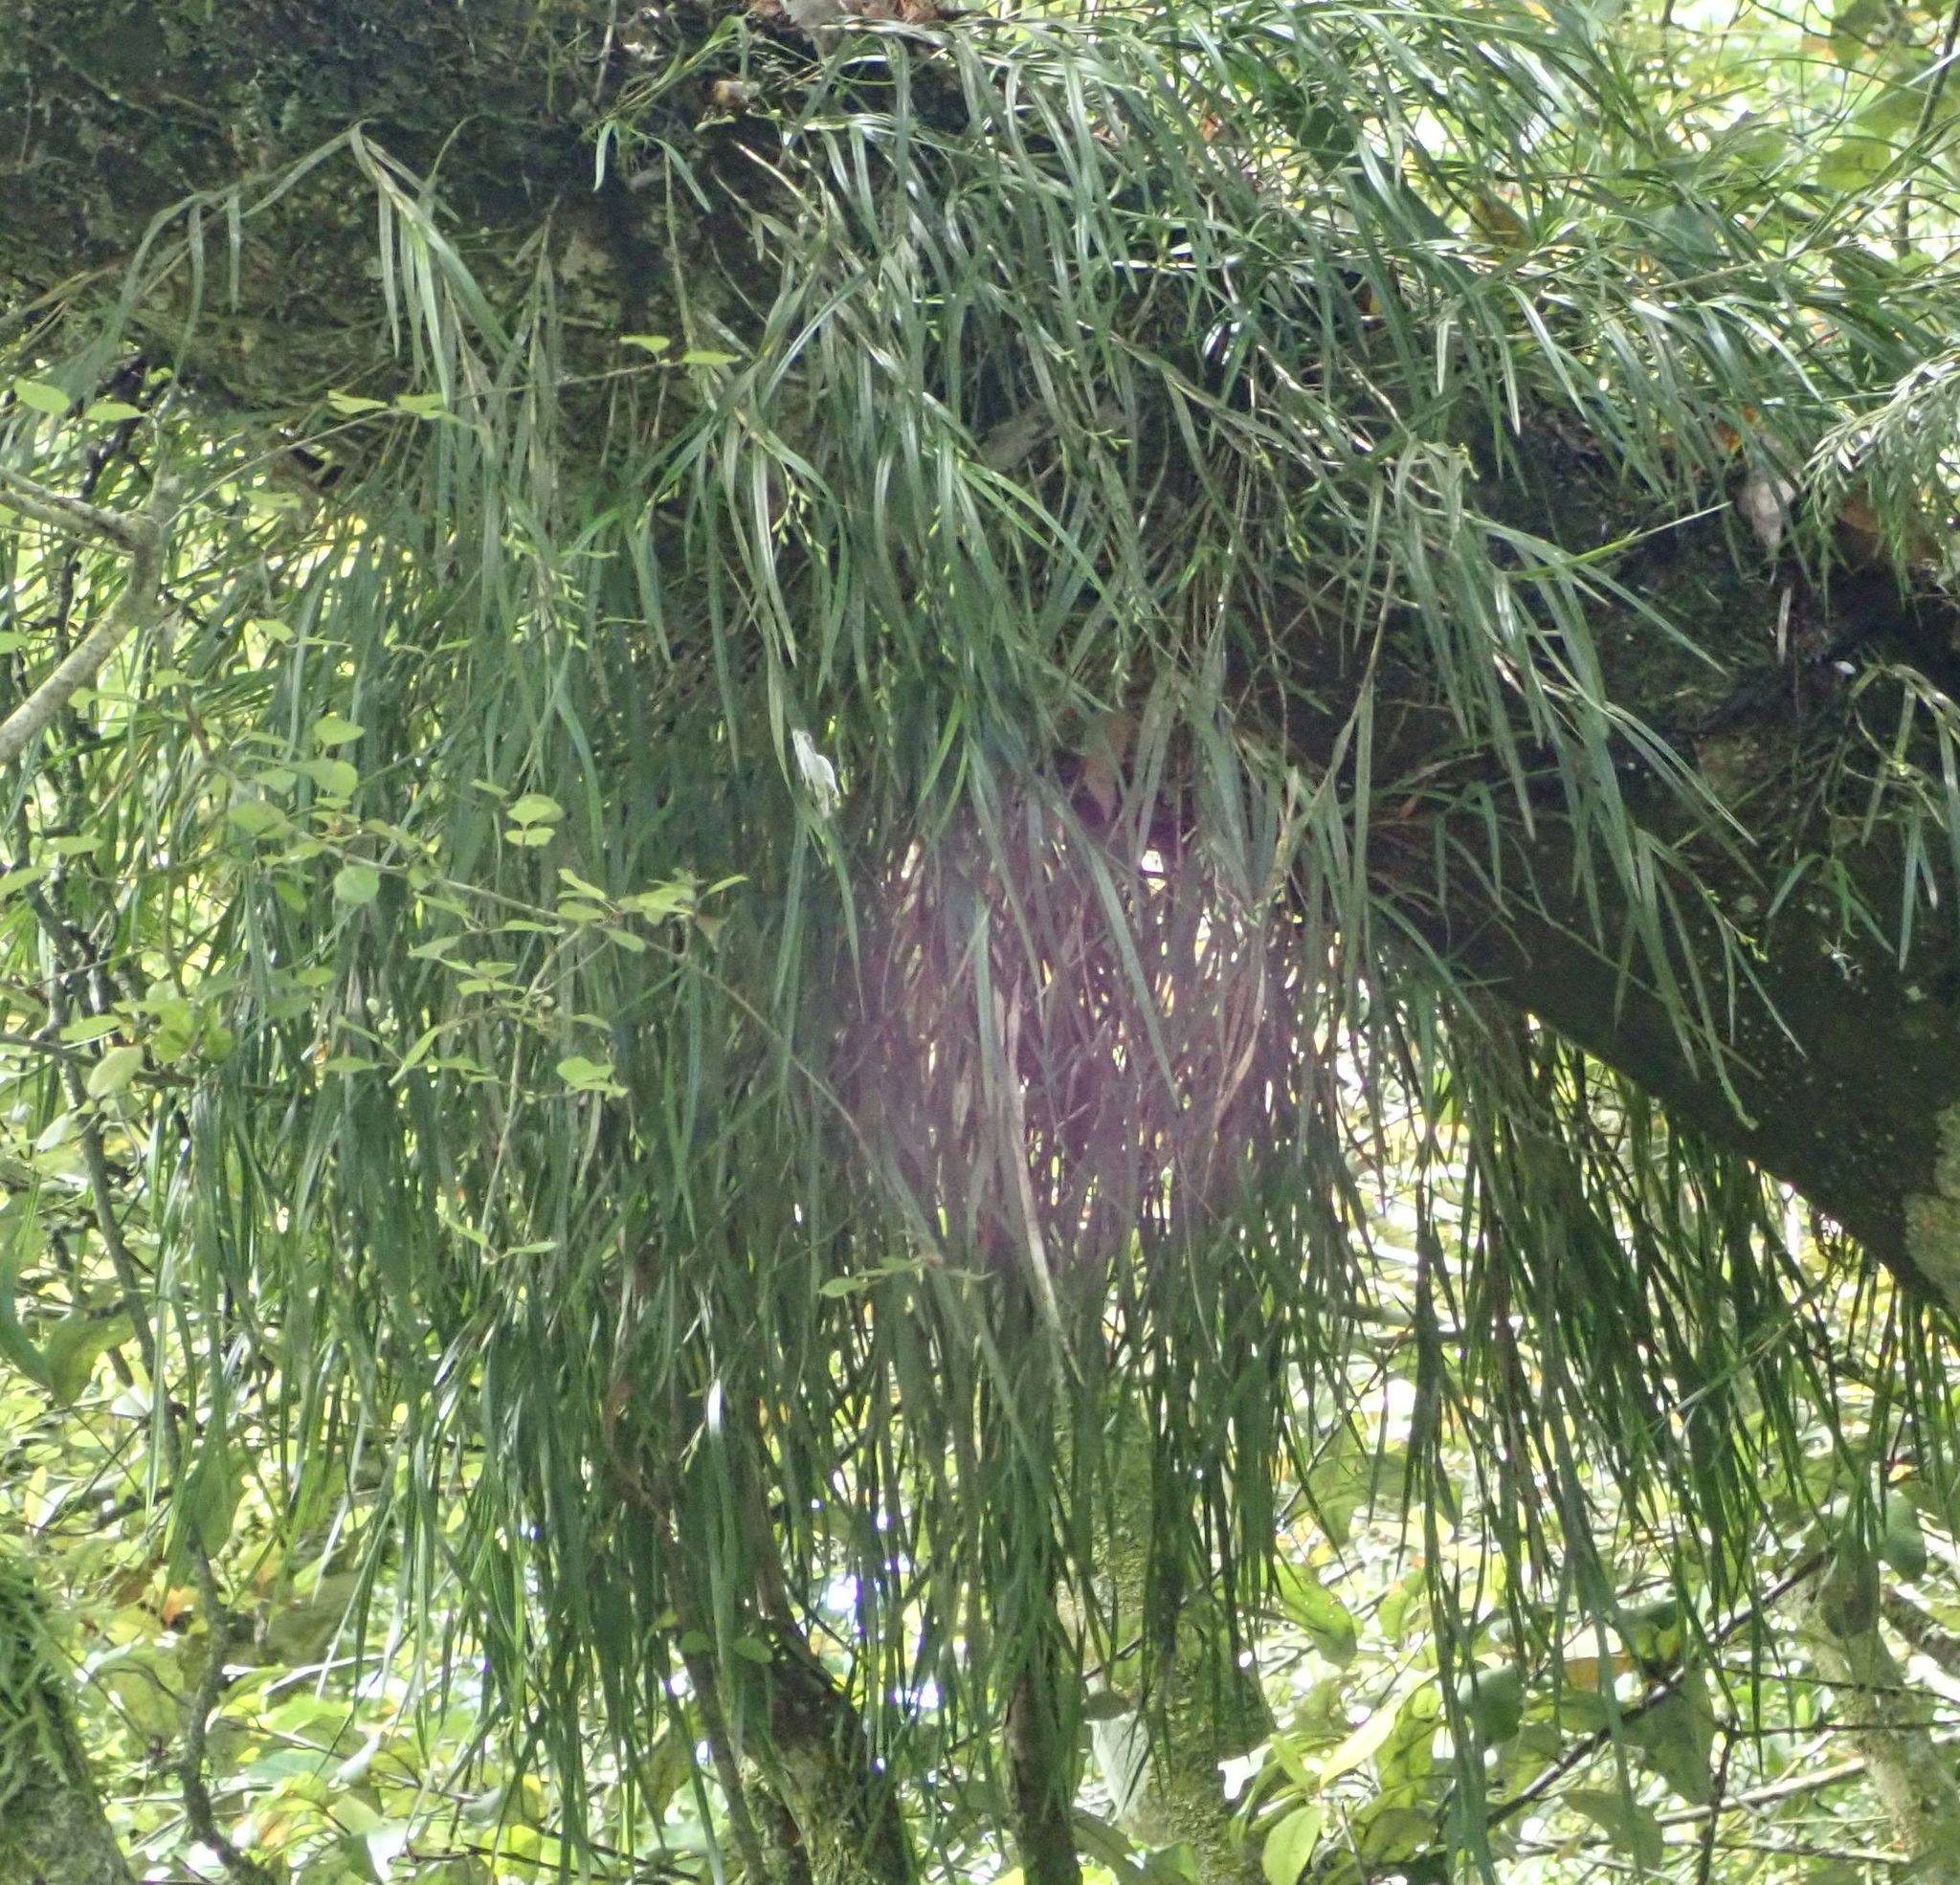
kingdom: Plantae
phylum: Tracheophyta
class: Liliopsida
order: Asparagales
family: Orchidaceae
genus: Earina
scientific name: Earina mucronata
